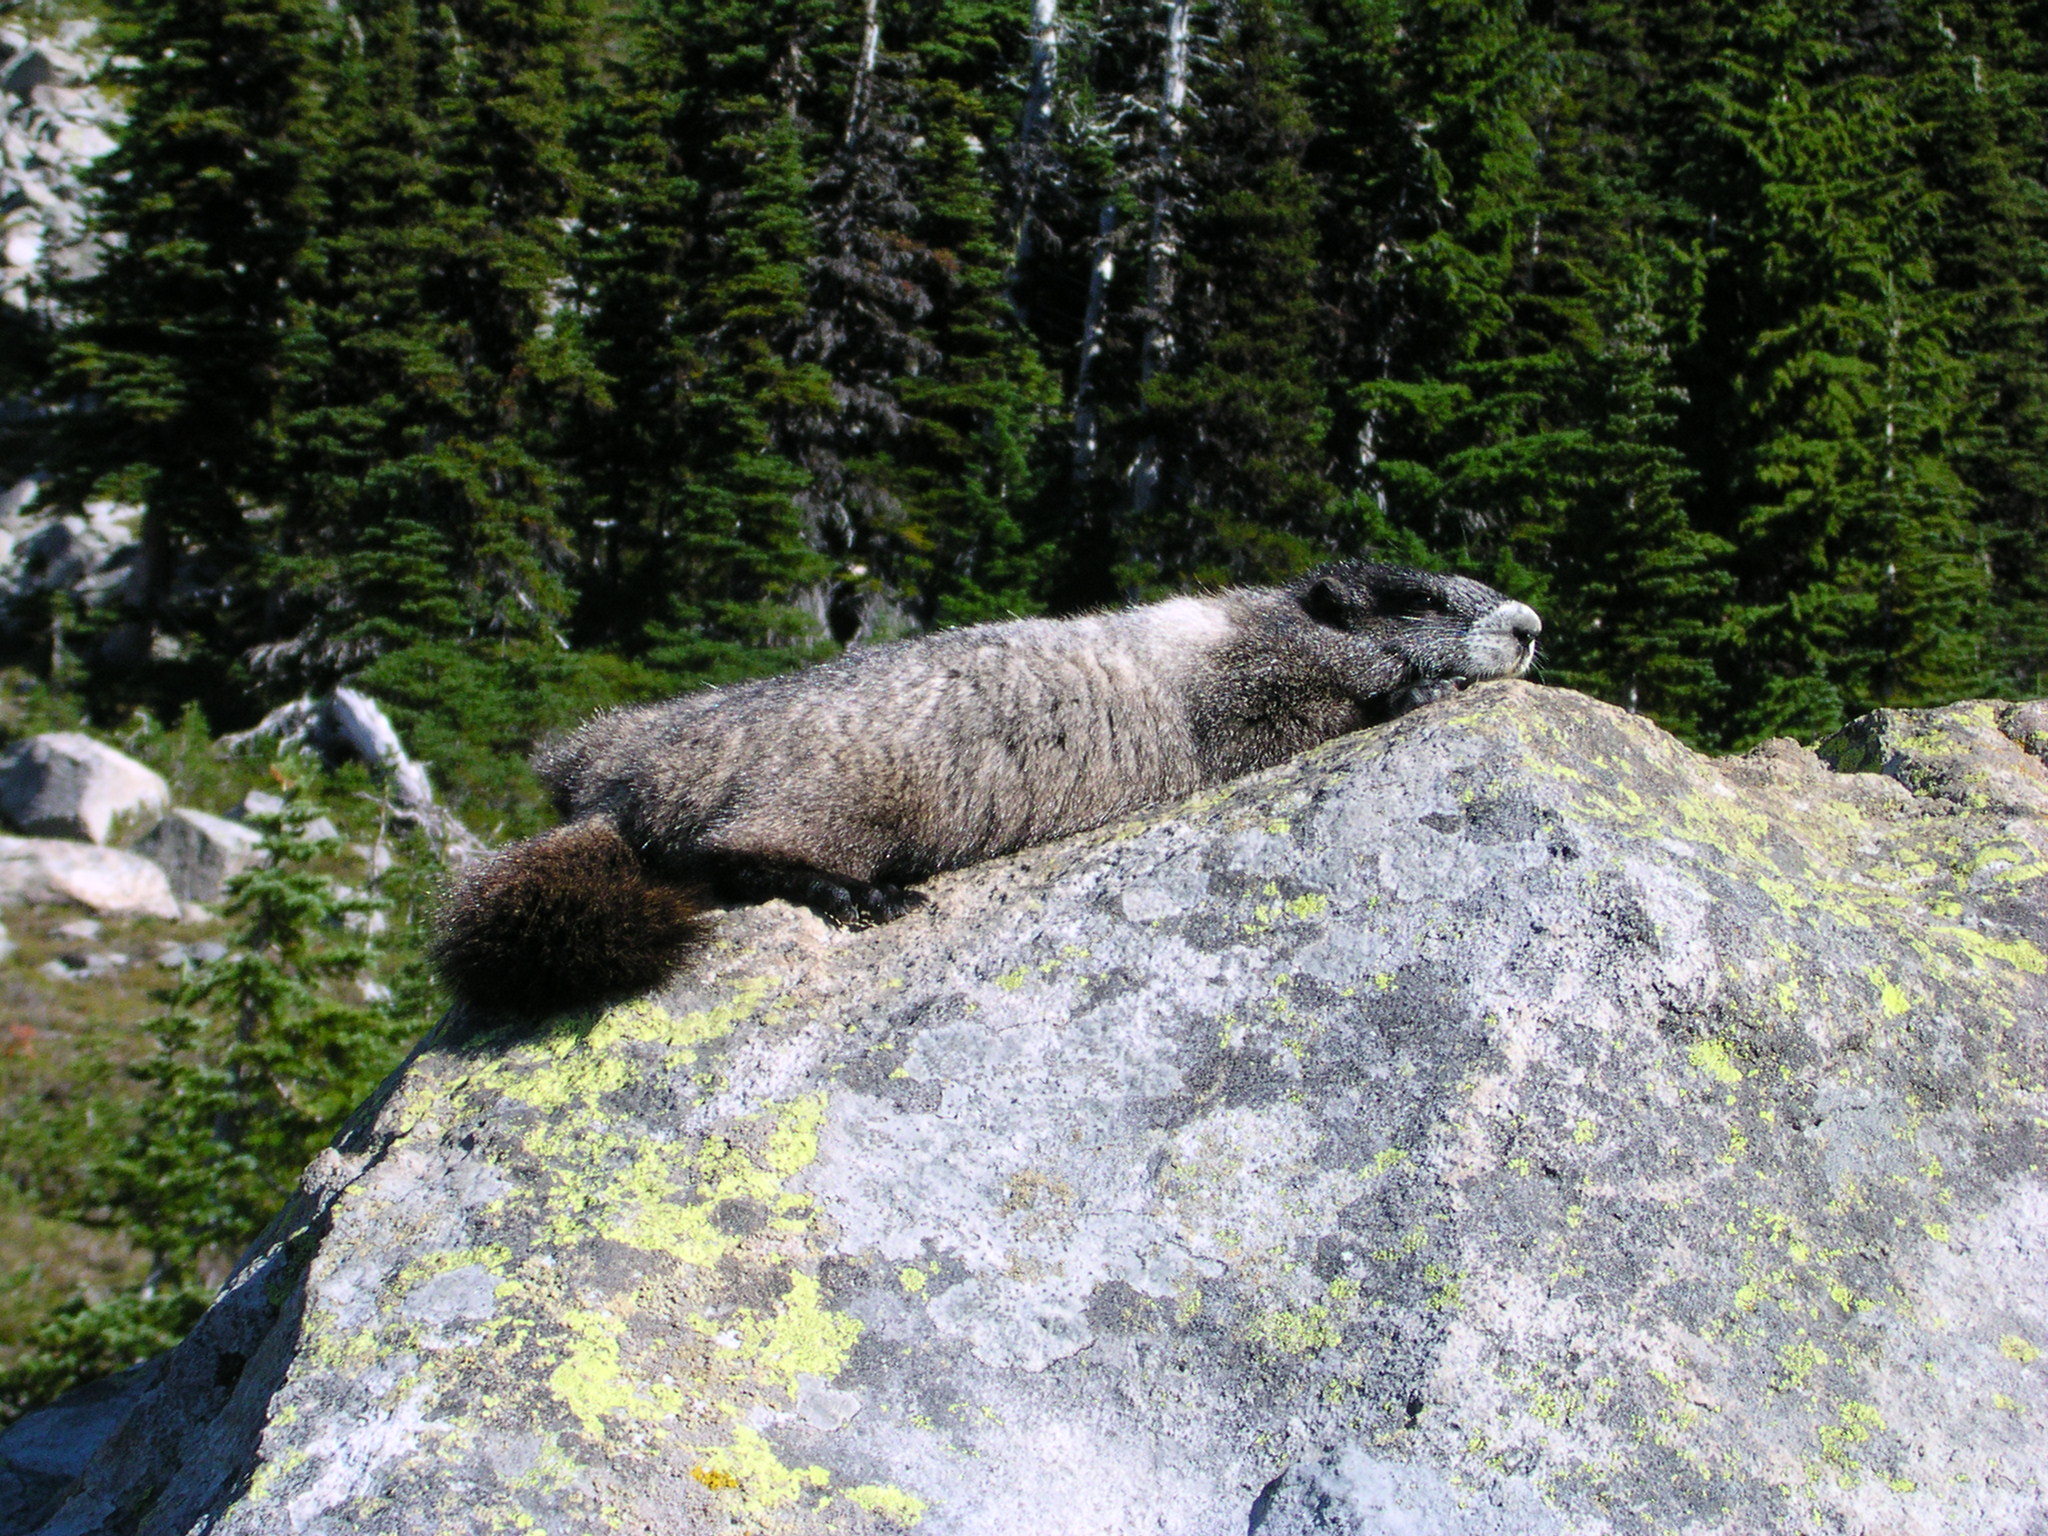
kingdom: Animalia
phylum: Chordata
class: Mammalia
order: Rodentia
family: Sciuridae
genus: Marmota
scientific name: Marmota caligata
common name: Hoary marmot
